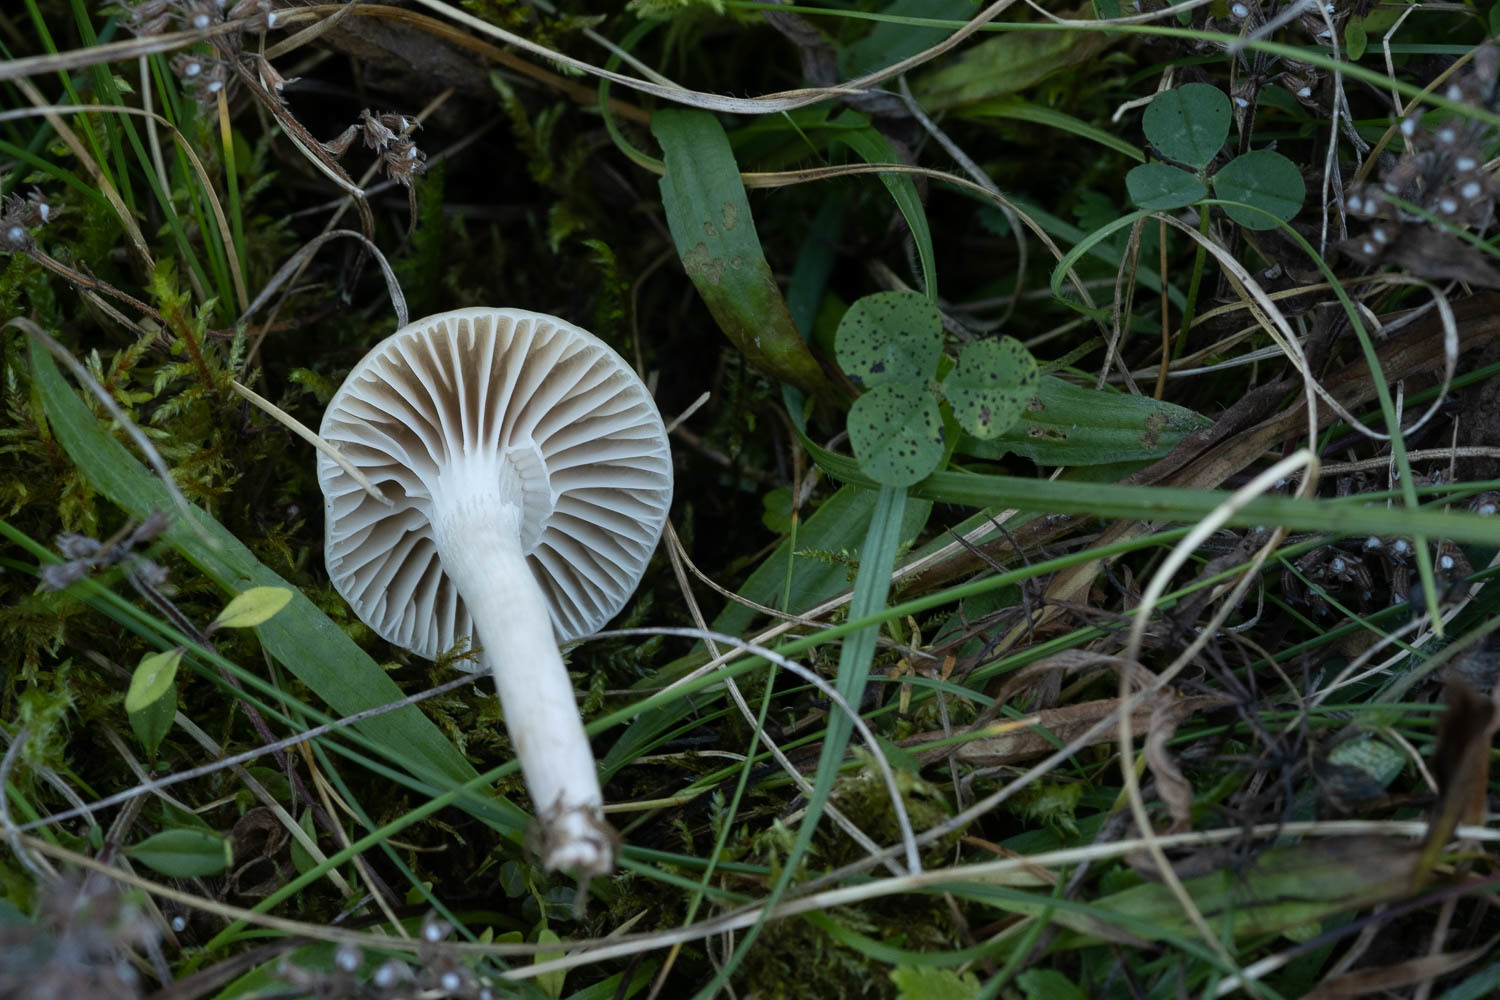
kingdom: Fungi
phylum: Basidiomycota
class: Agaricomycetes
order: Agaricales
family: Hygrophoraceae
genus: Cuphophyllus
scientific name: Cuphophyllus virgineus
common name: Snowy waxcap
